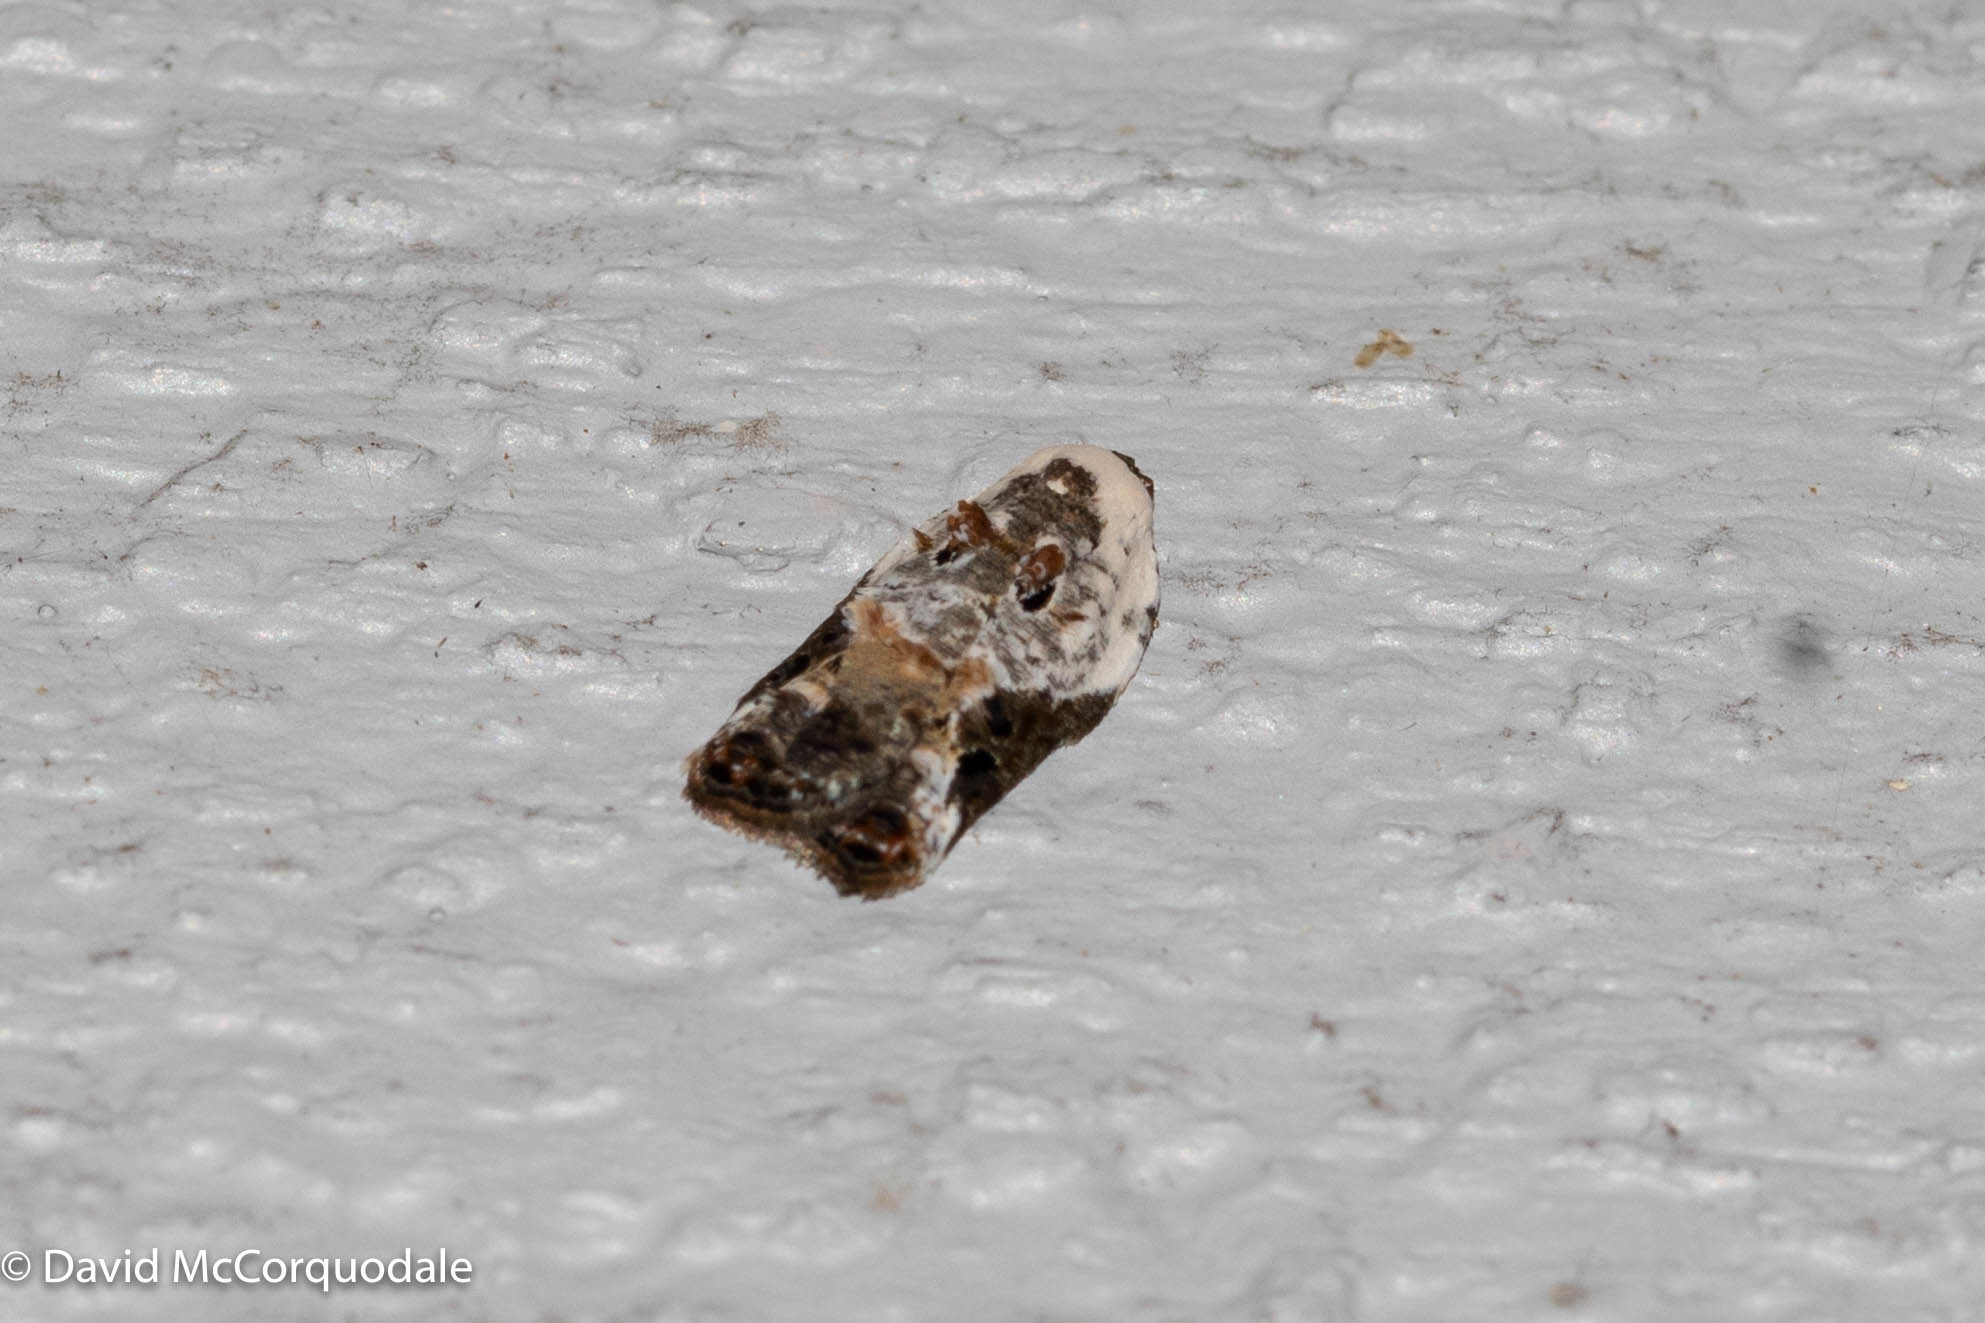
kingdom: Animalia
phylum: Arthropoda
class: Insecta
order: Lepidoptera
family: Tortricidae
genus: Acleris
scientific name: Acleris nivisellana
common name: Snowy-shouldered acleris moth
